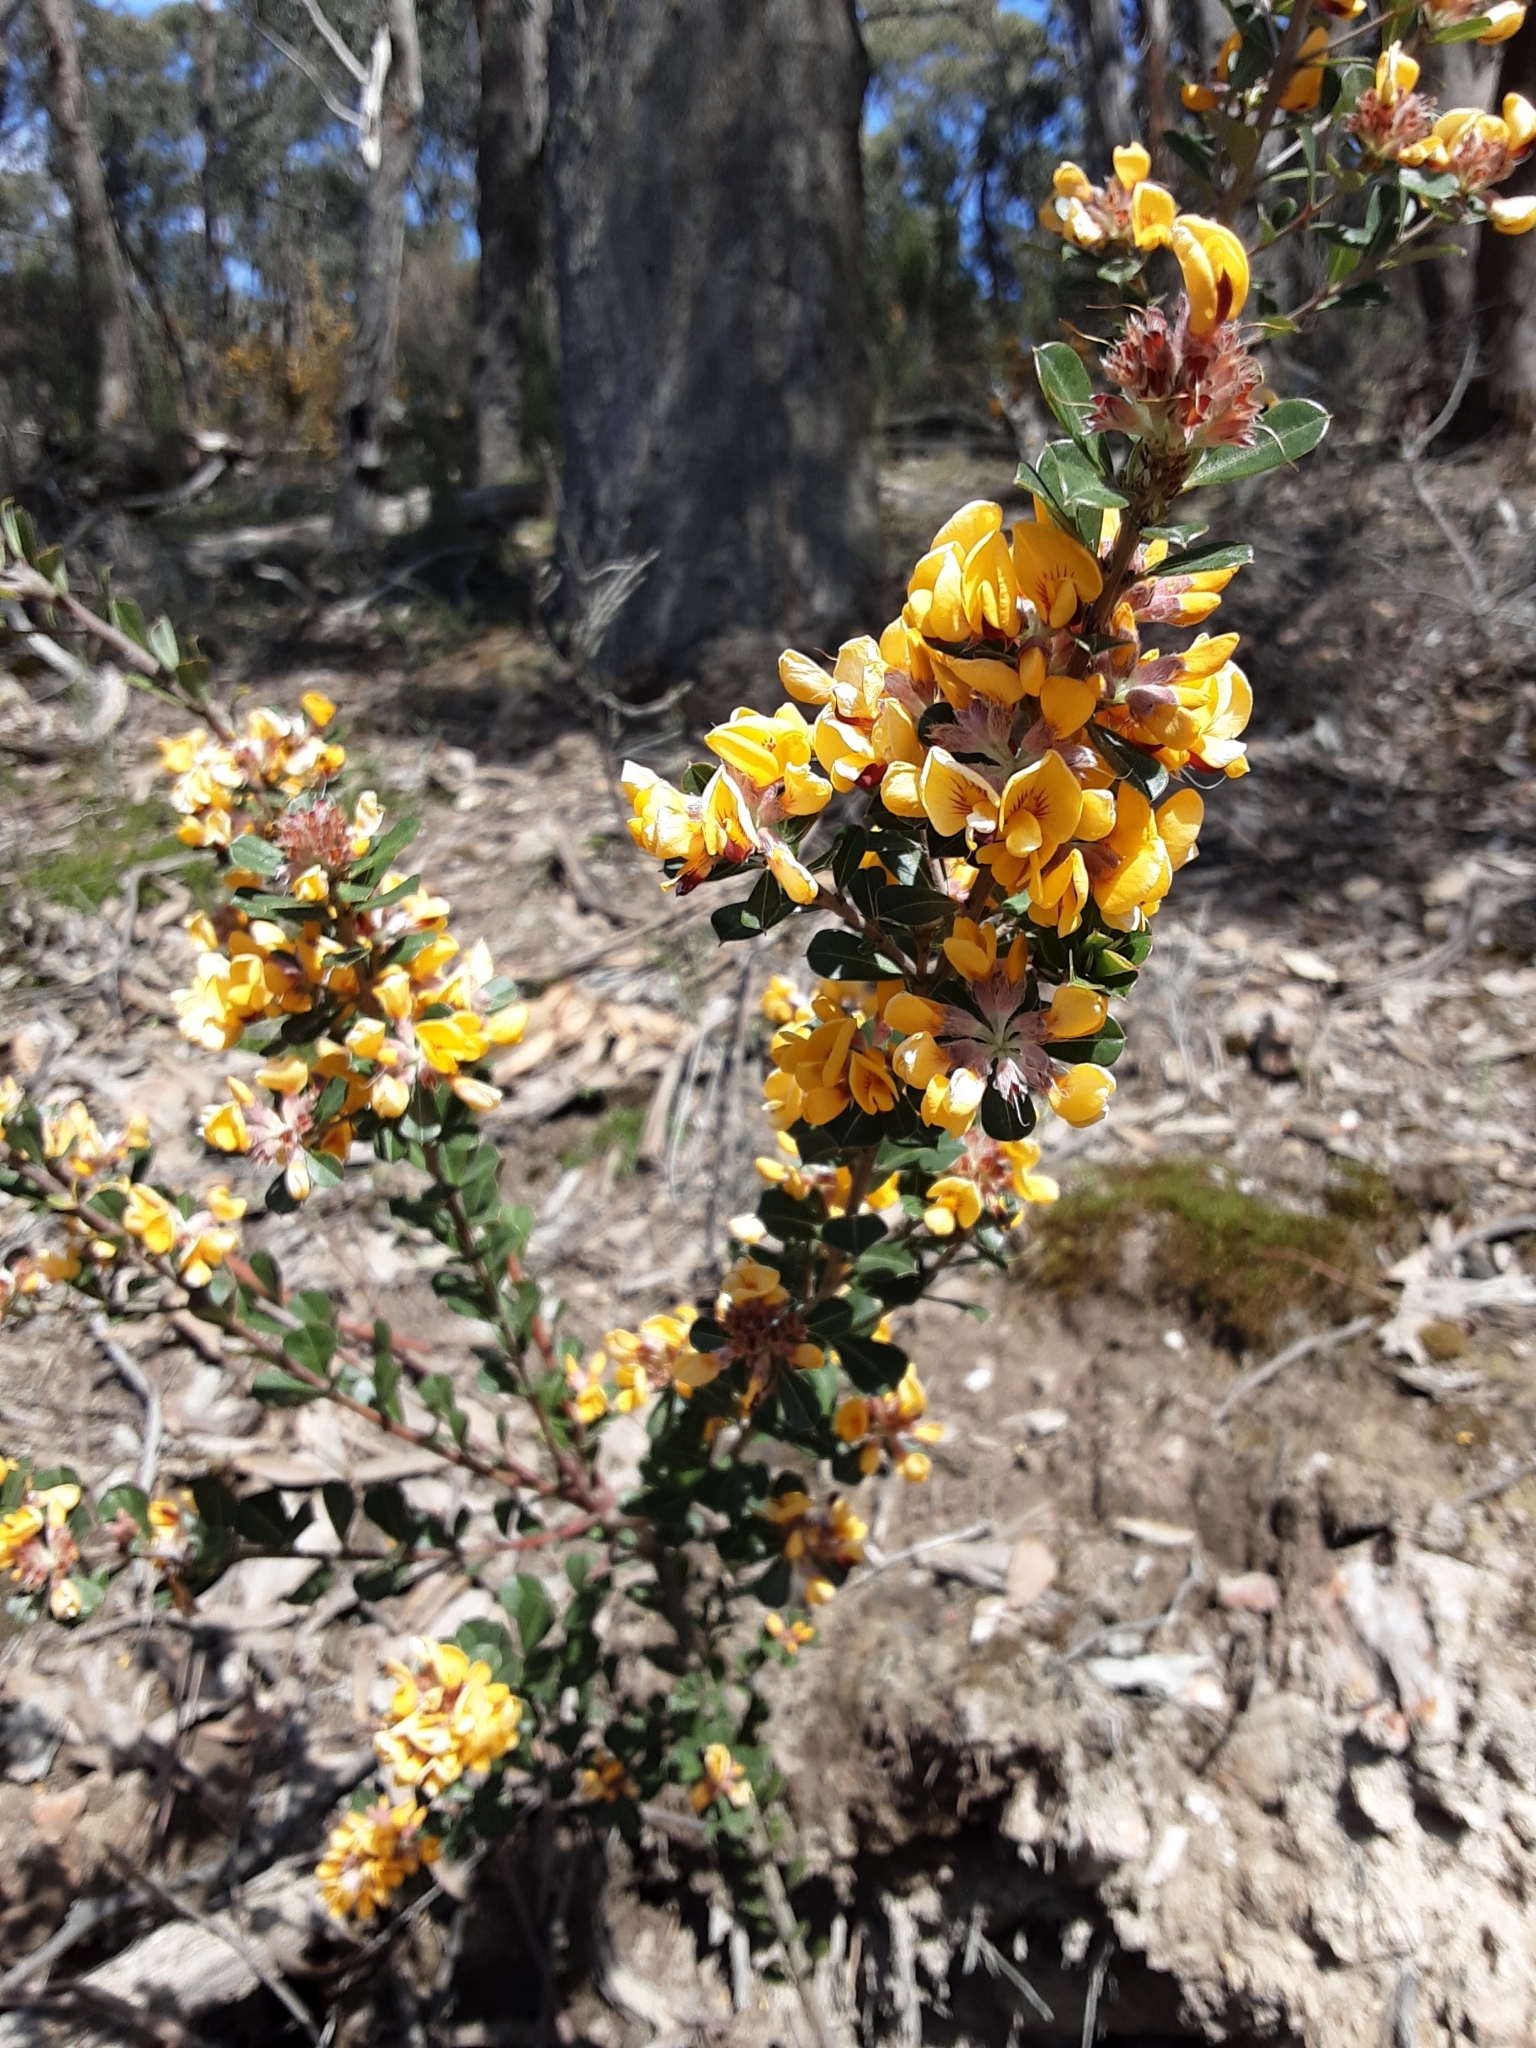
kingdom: Plantae
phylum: Tracheophyta
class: Magnoliopsida
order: Fabales
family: Fabaceae
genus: Pultenaea
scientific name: Pultenaea daphnoides
